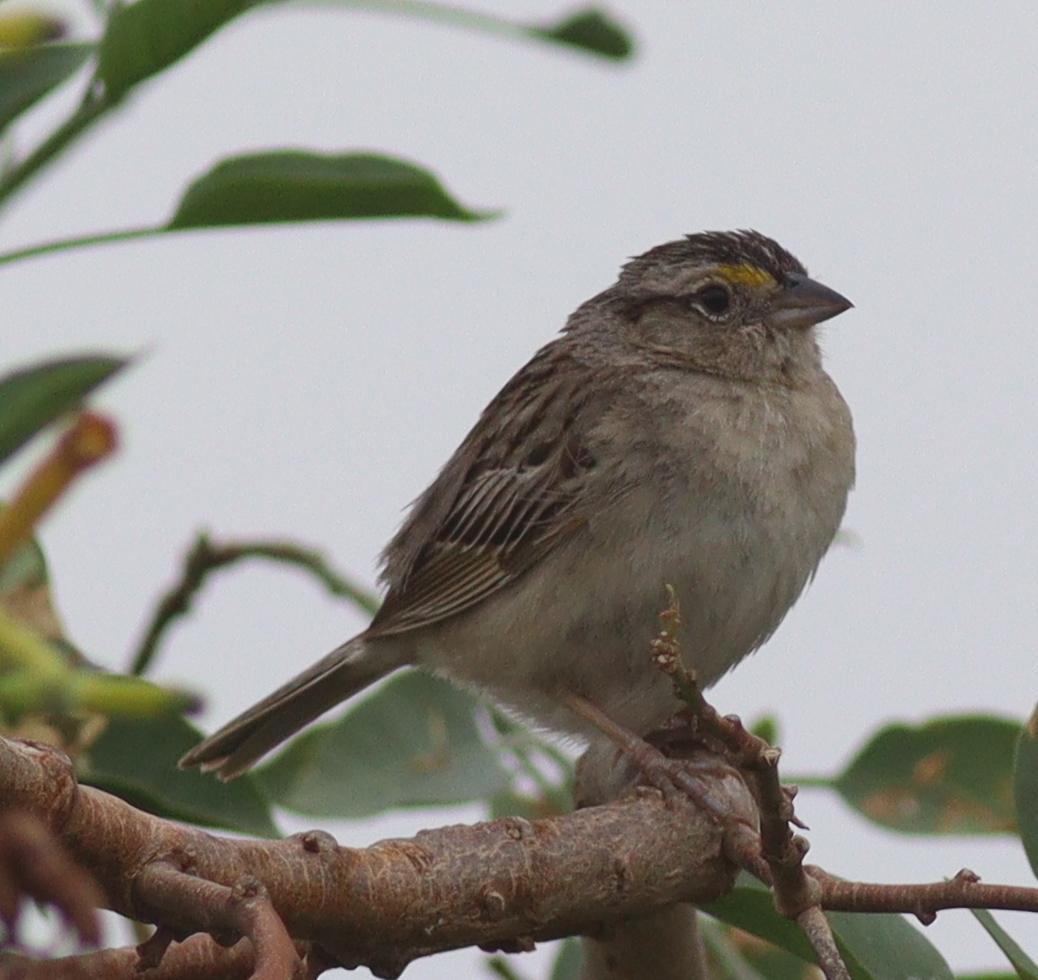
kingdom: Animalia
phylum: Chordata
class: Aves
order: Passeriformes
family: Passerellidae
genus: Ammodramus
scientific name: Ammodramus humeralis
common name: Grassland sparrow
